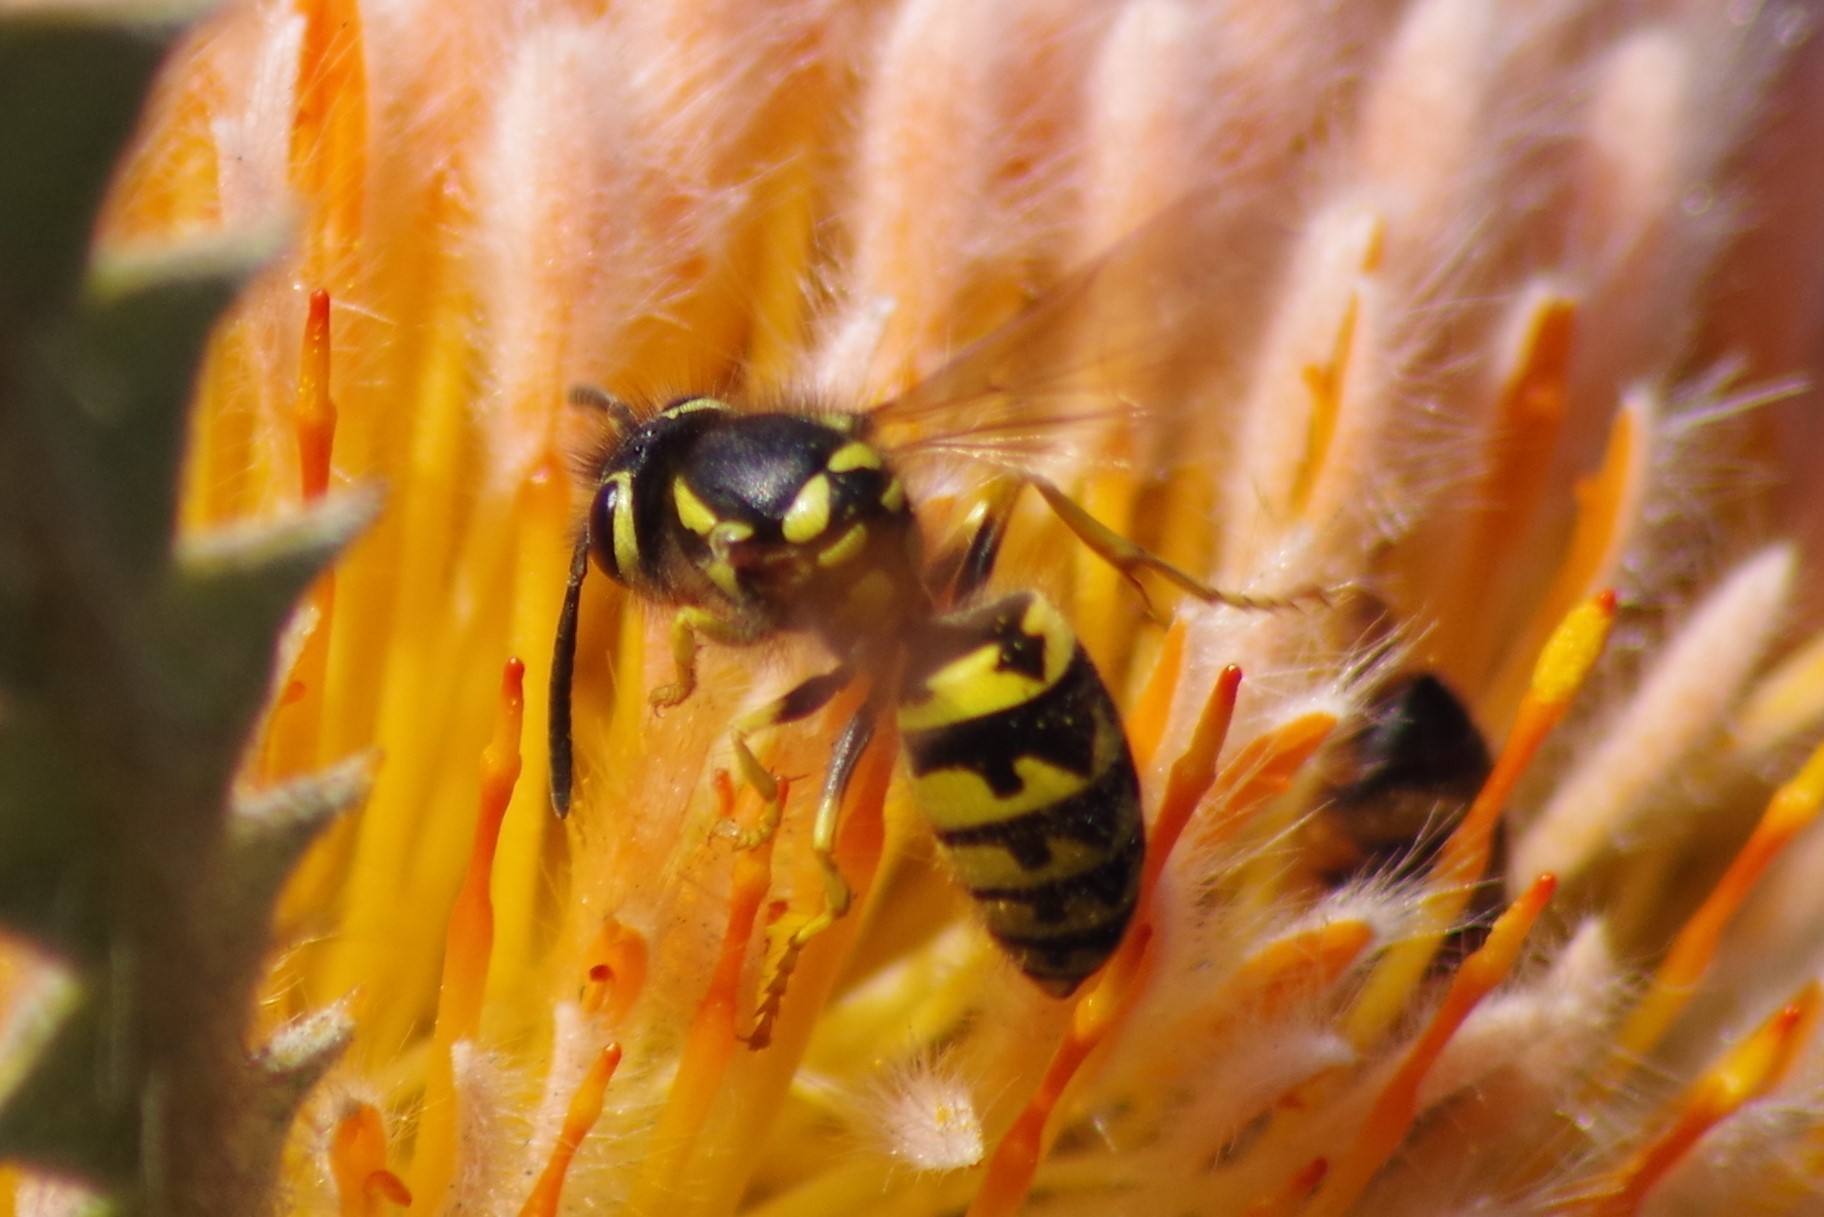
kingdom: Animalia
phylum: Arthropoda
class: Insecta
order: Hymenoptera
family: Vespidae
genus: Vespula
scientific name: Vespula pensylvanica
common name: Western yellowjacket
